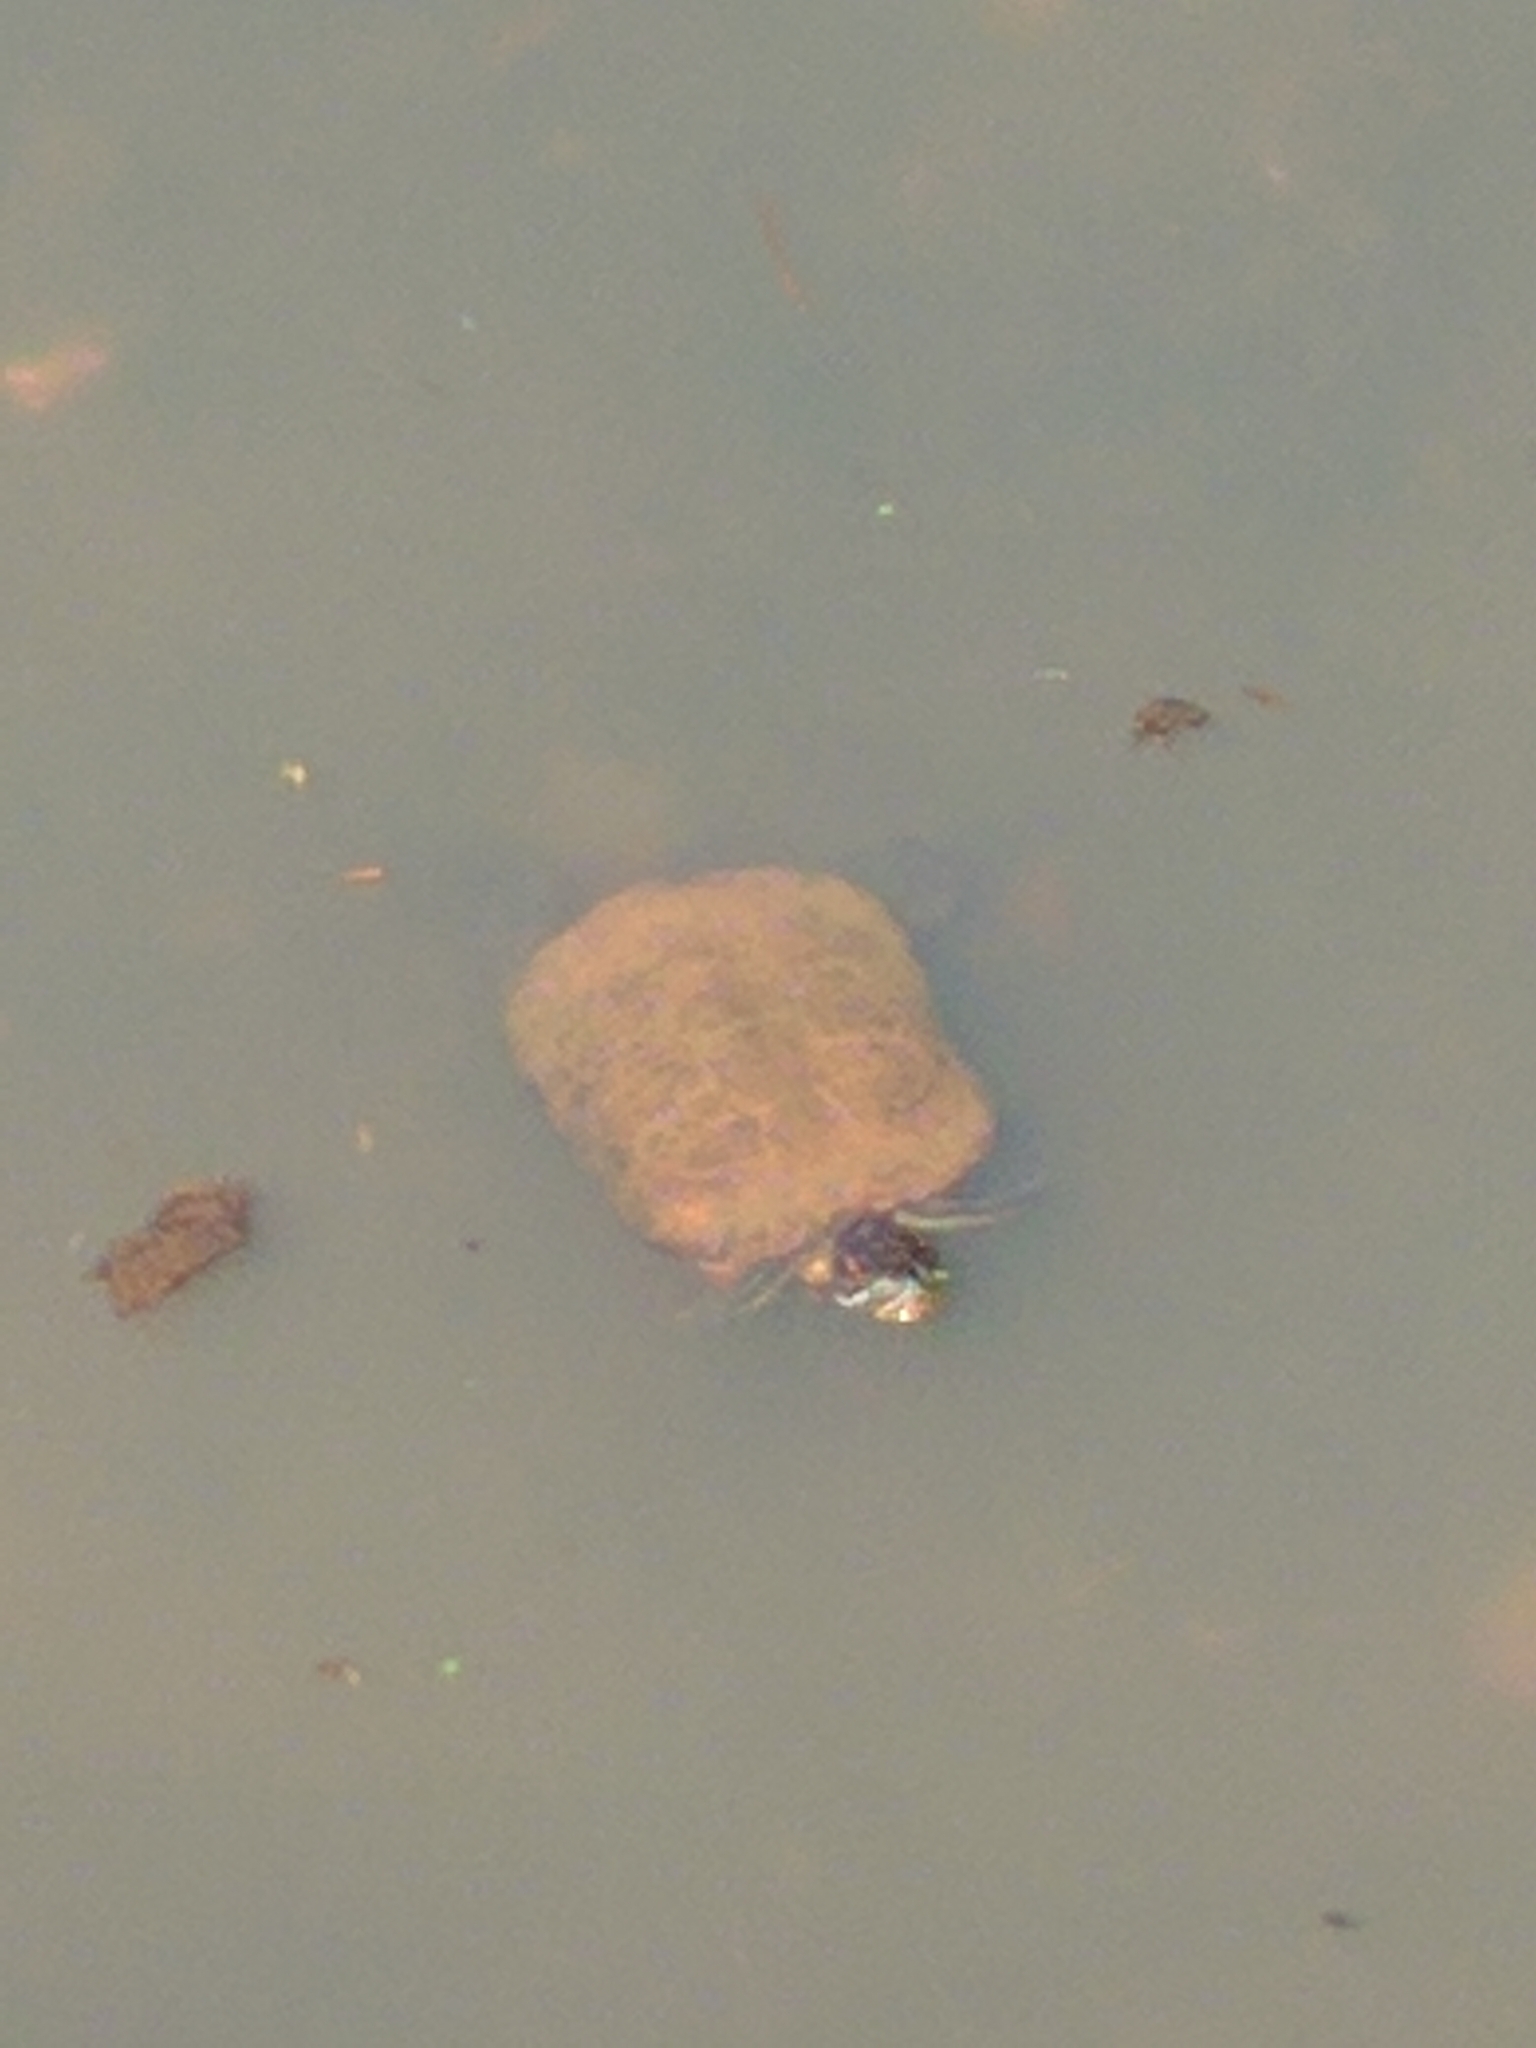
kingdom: Animalia
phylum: Chordata
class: Testudines
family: Emydidae
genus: Trachemys
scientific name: Trachemys scripta
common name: Slider
